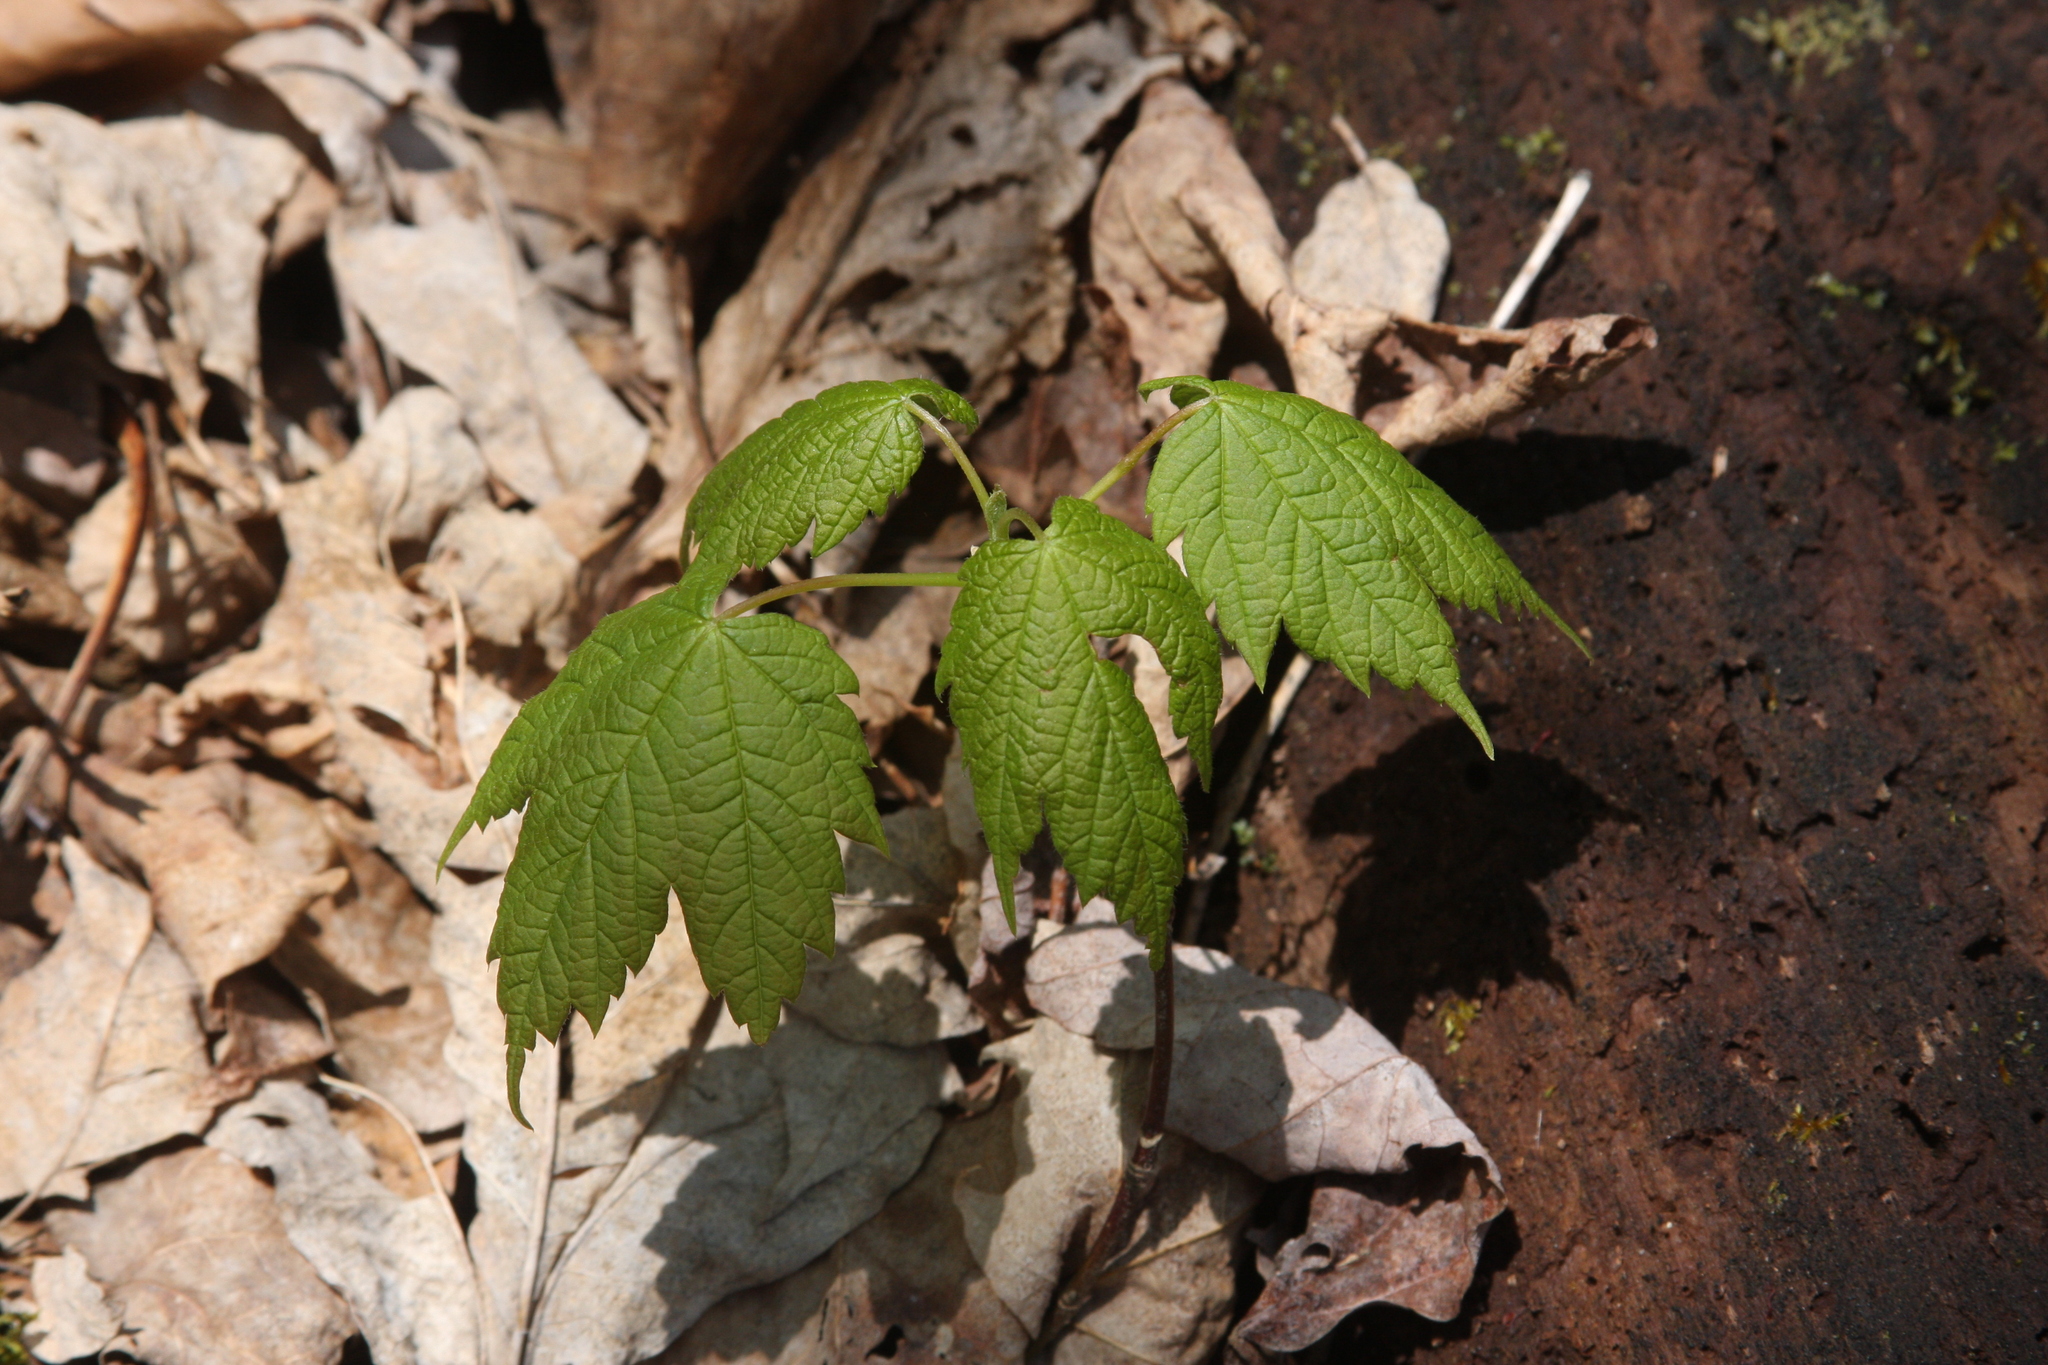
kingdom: Plantae
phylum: Tracheophyta
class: Magnoliopsida
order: Sapindales
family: Sapindaceae
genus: Acer
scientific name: Acer spicatum
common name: Mountain maple
